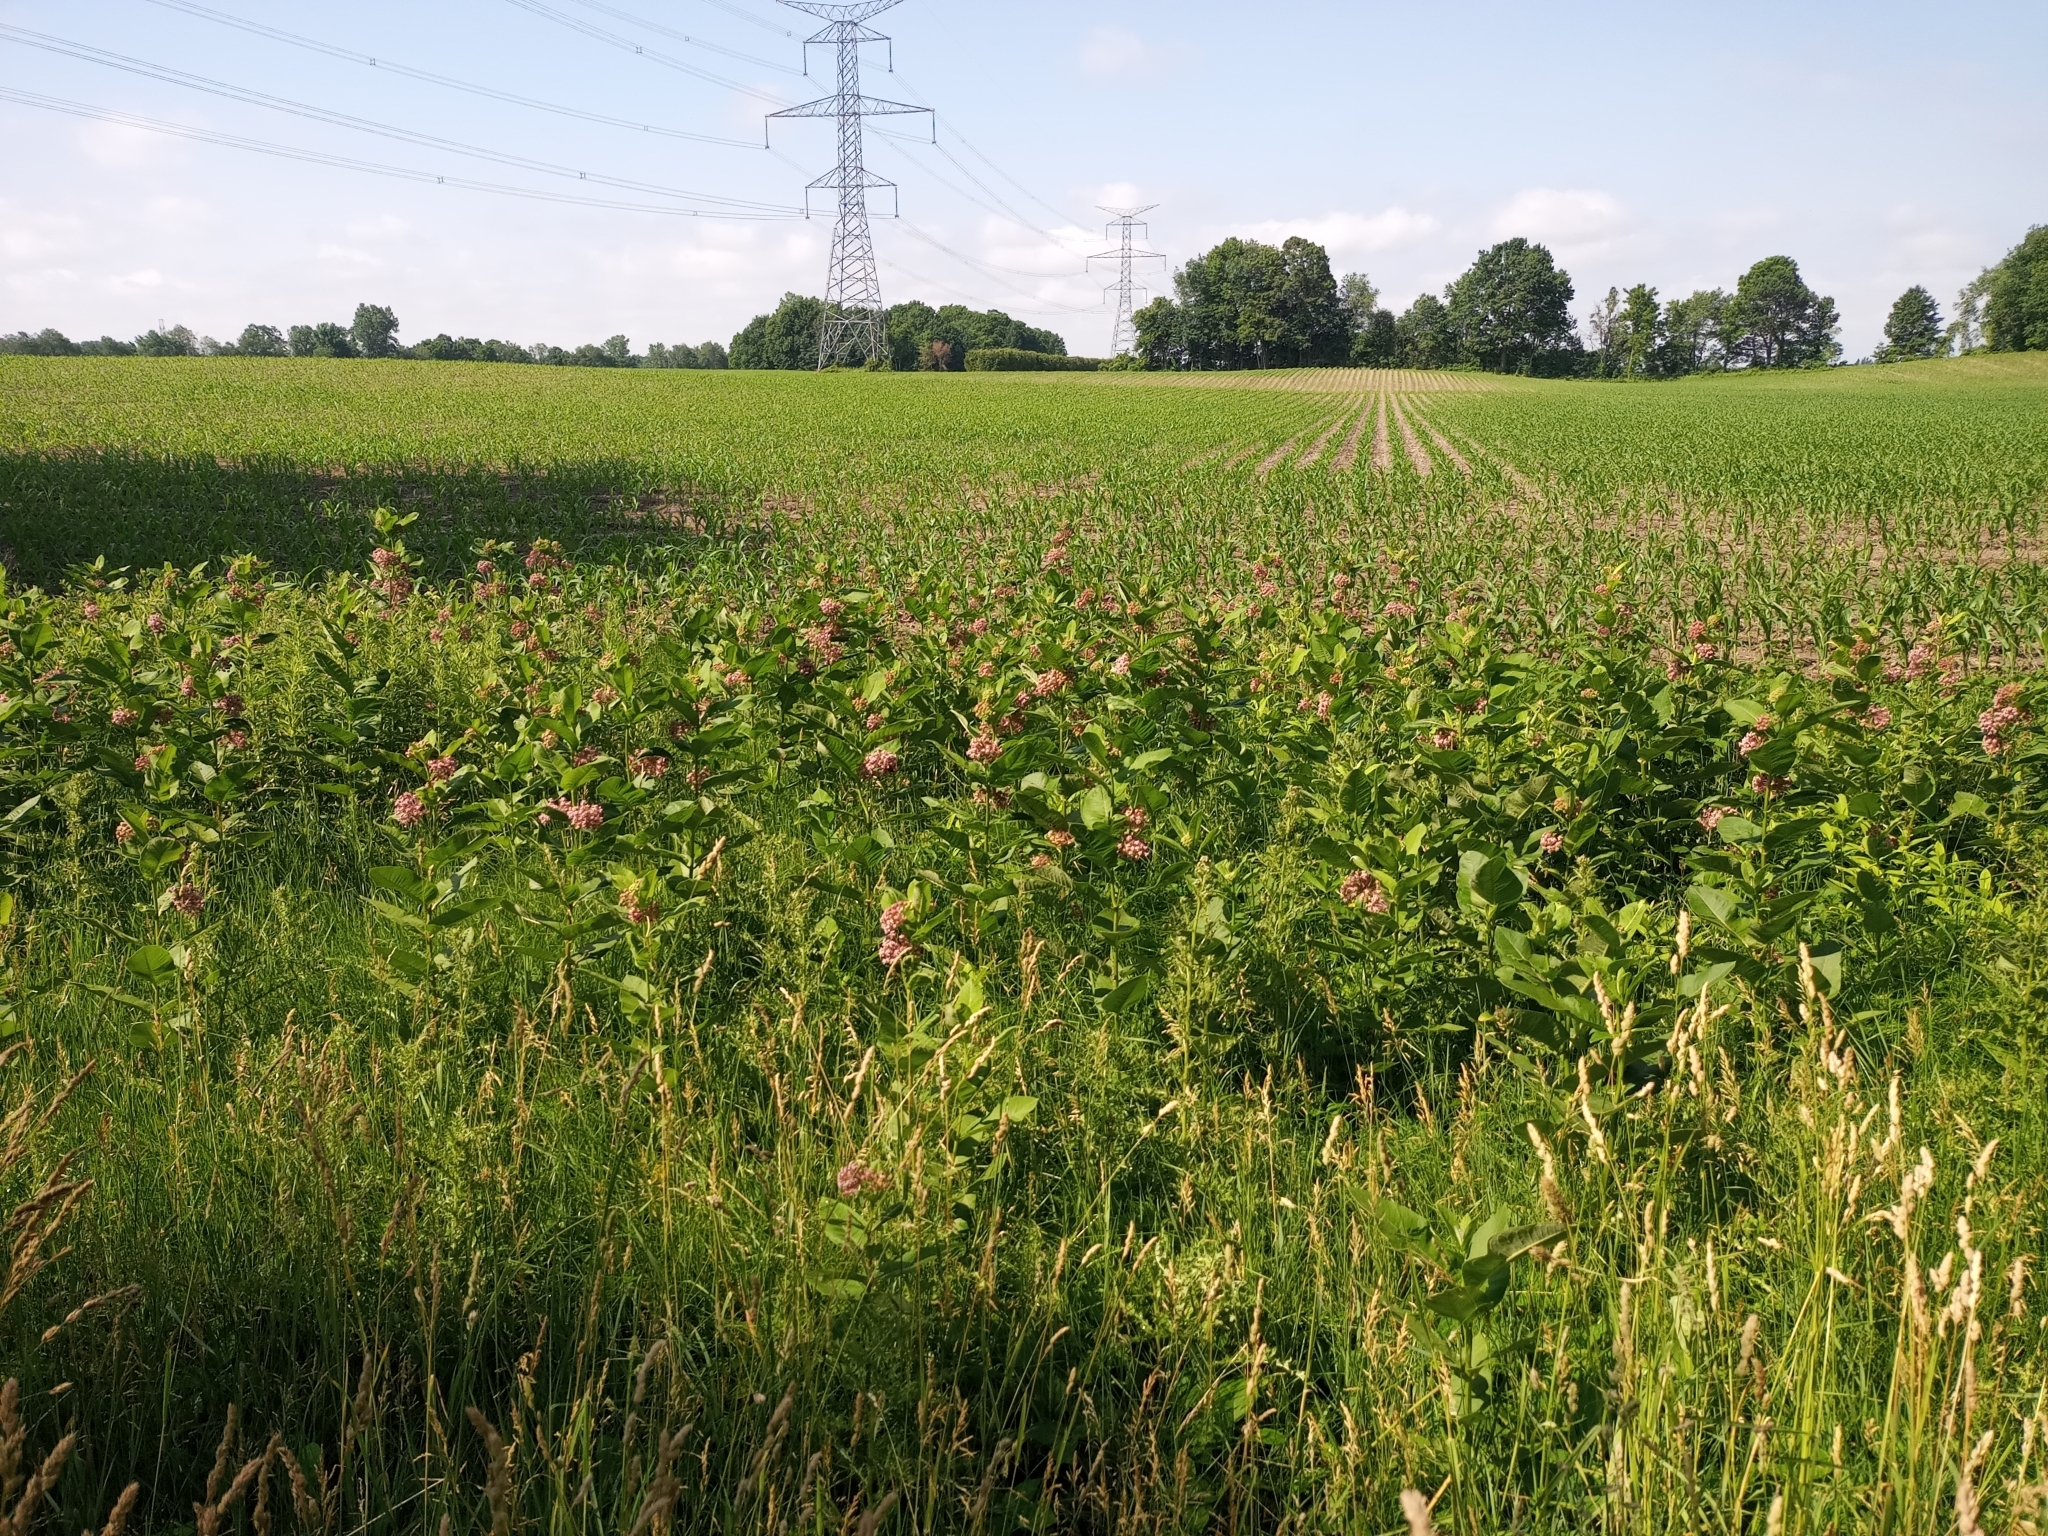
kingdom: Plantae
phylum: Tracheophyta
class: Magnoliopsida
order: Gentianales
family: Apocynaceae
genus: Asclepias
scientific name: Asclepias syriaca
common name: Common milkweed
